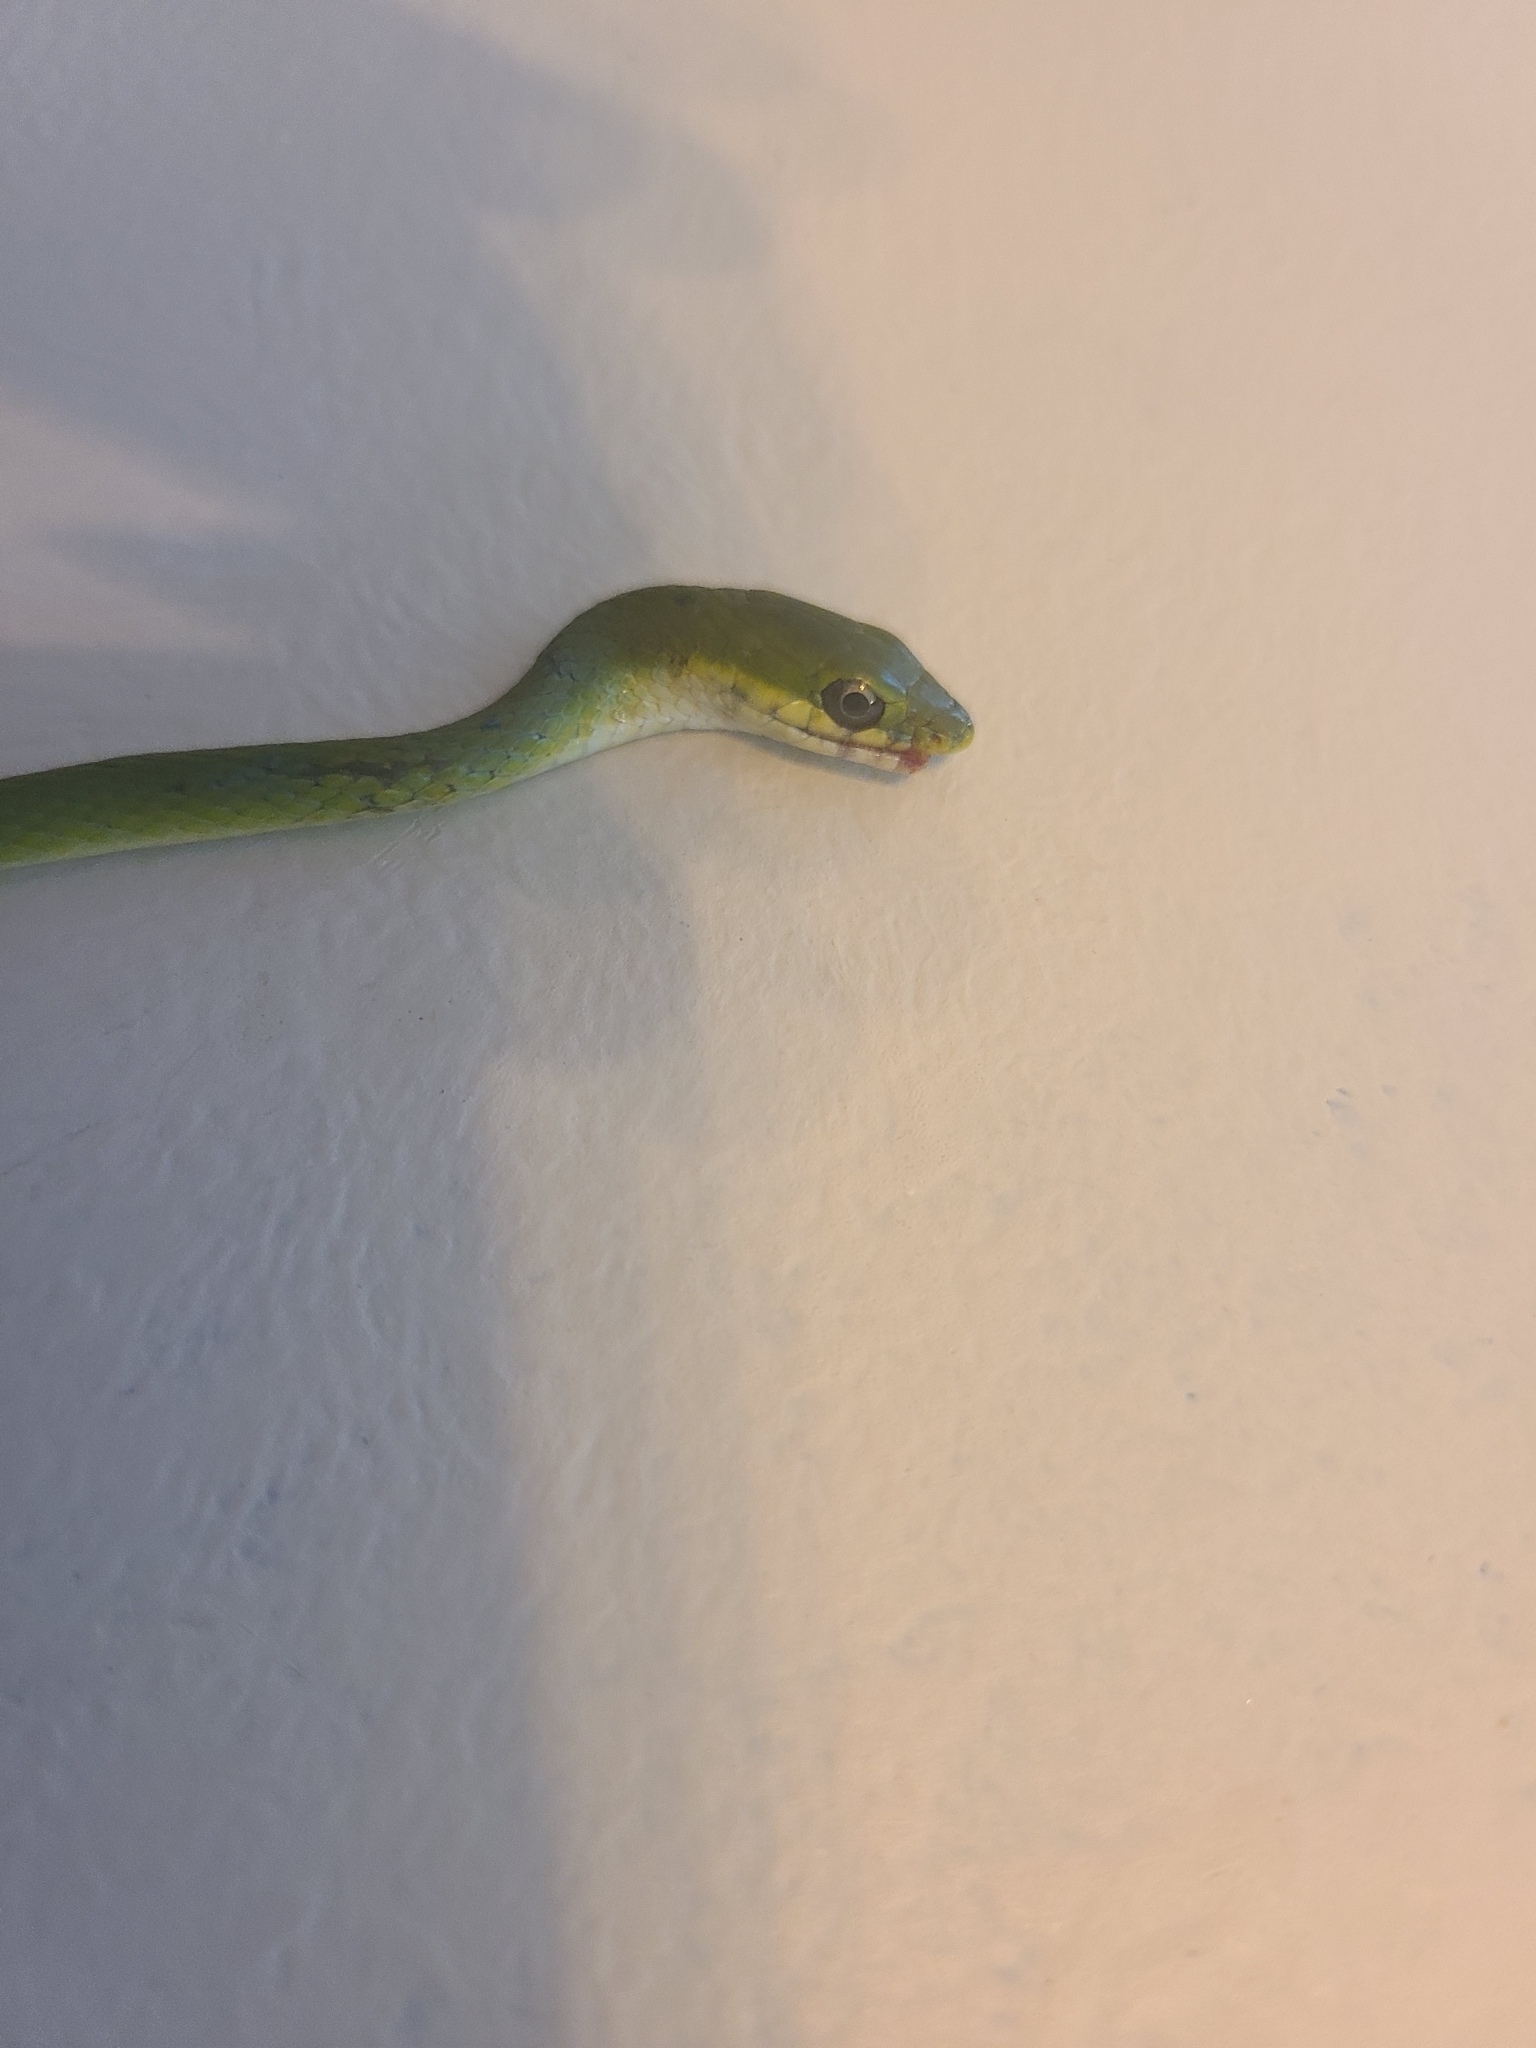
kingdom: Animalia
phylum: Chordata
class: Squamata
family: Colubridae
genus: Opheodrys
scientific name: Opheodrys aestivus
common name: Rough greensnake
